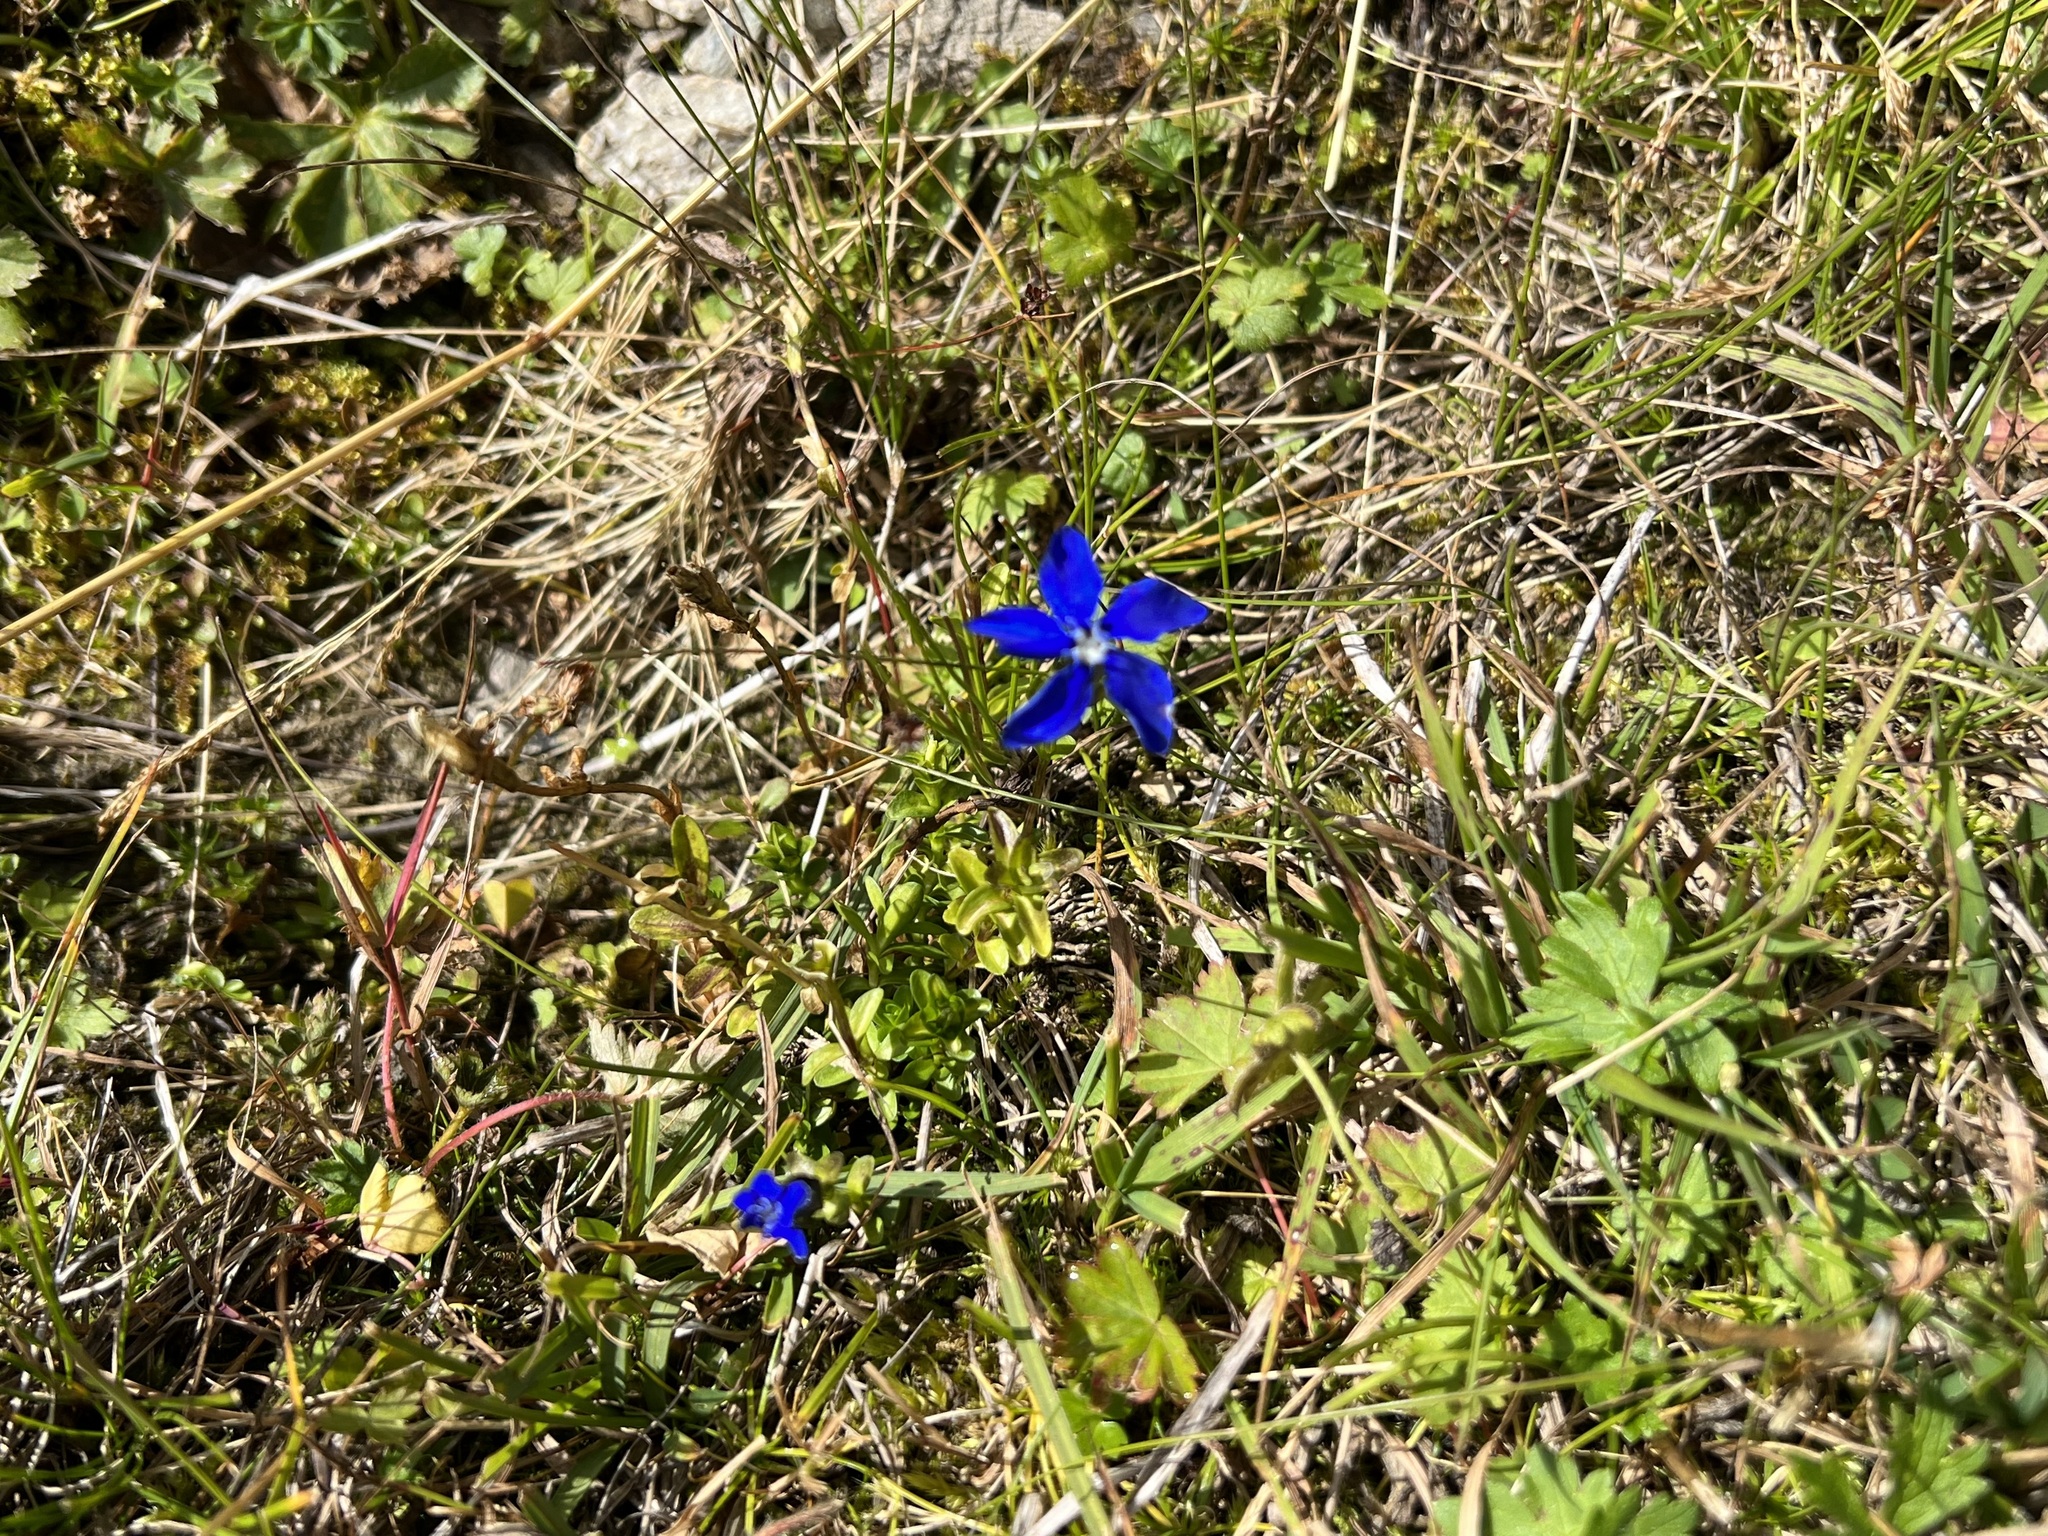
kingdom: Plantae
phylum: Tracheophyta
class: Magnoliopsida
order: Gentianales
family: Gentianaceae
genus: Gentiana
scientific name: Gentiana bavarica
